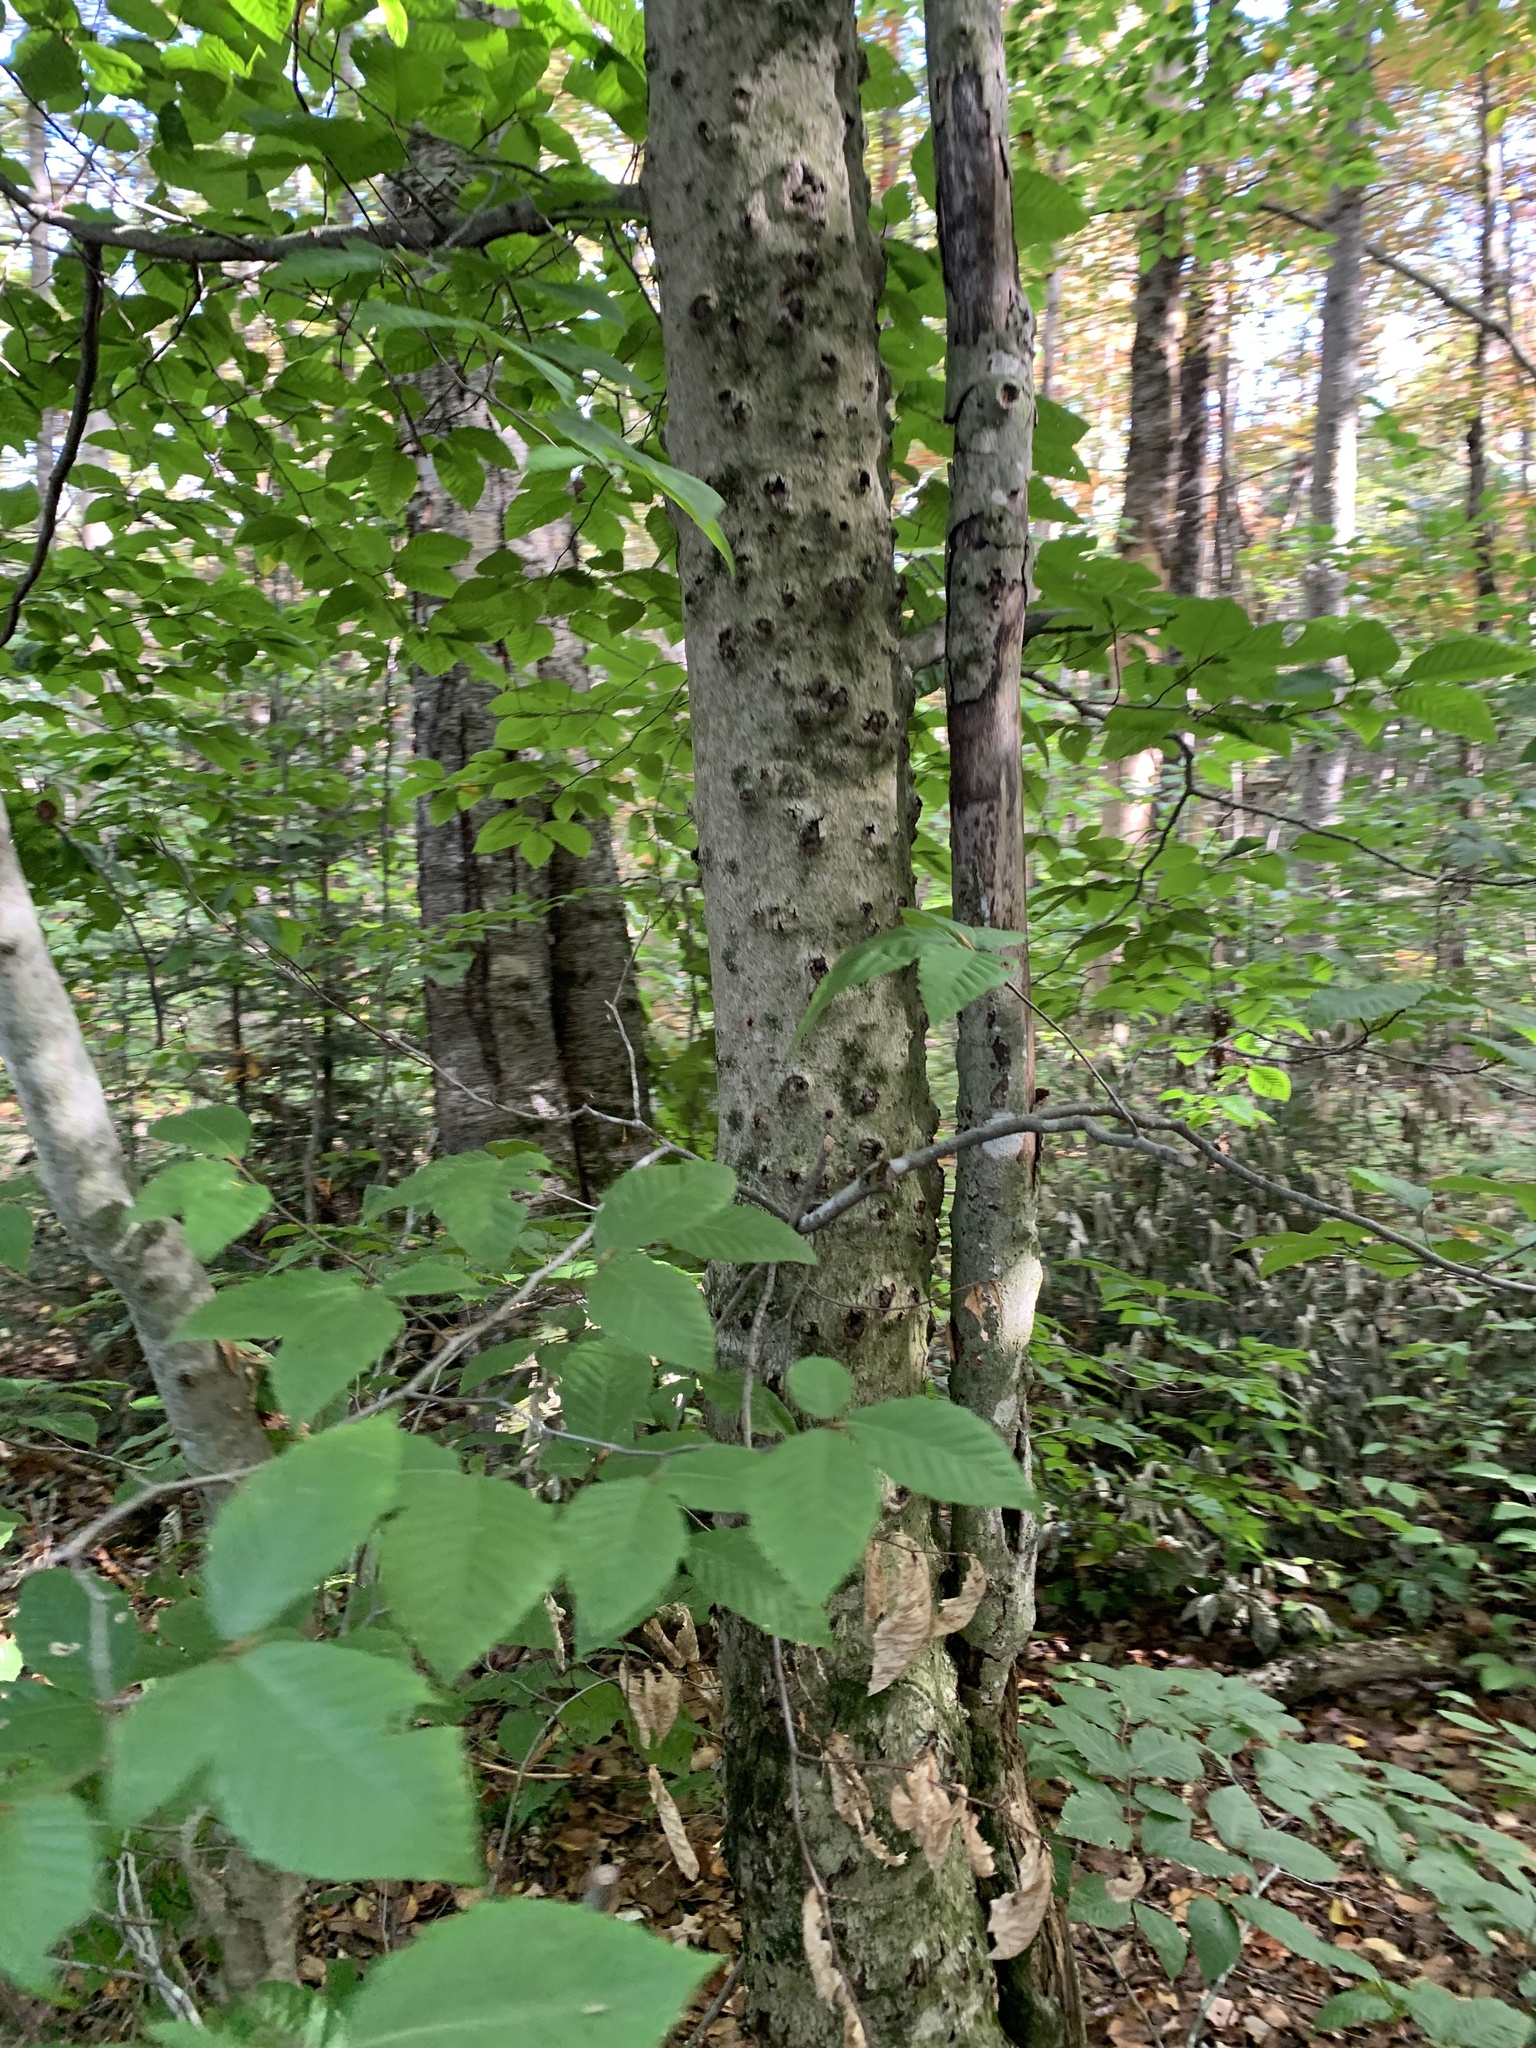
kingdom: Plantae
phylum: Tracheophyta
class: Magnoliopsida
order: Fagales
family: Fagaceae
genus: Fagus
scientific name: Fagus grandifolia
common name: American beech
